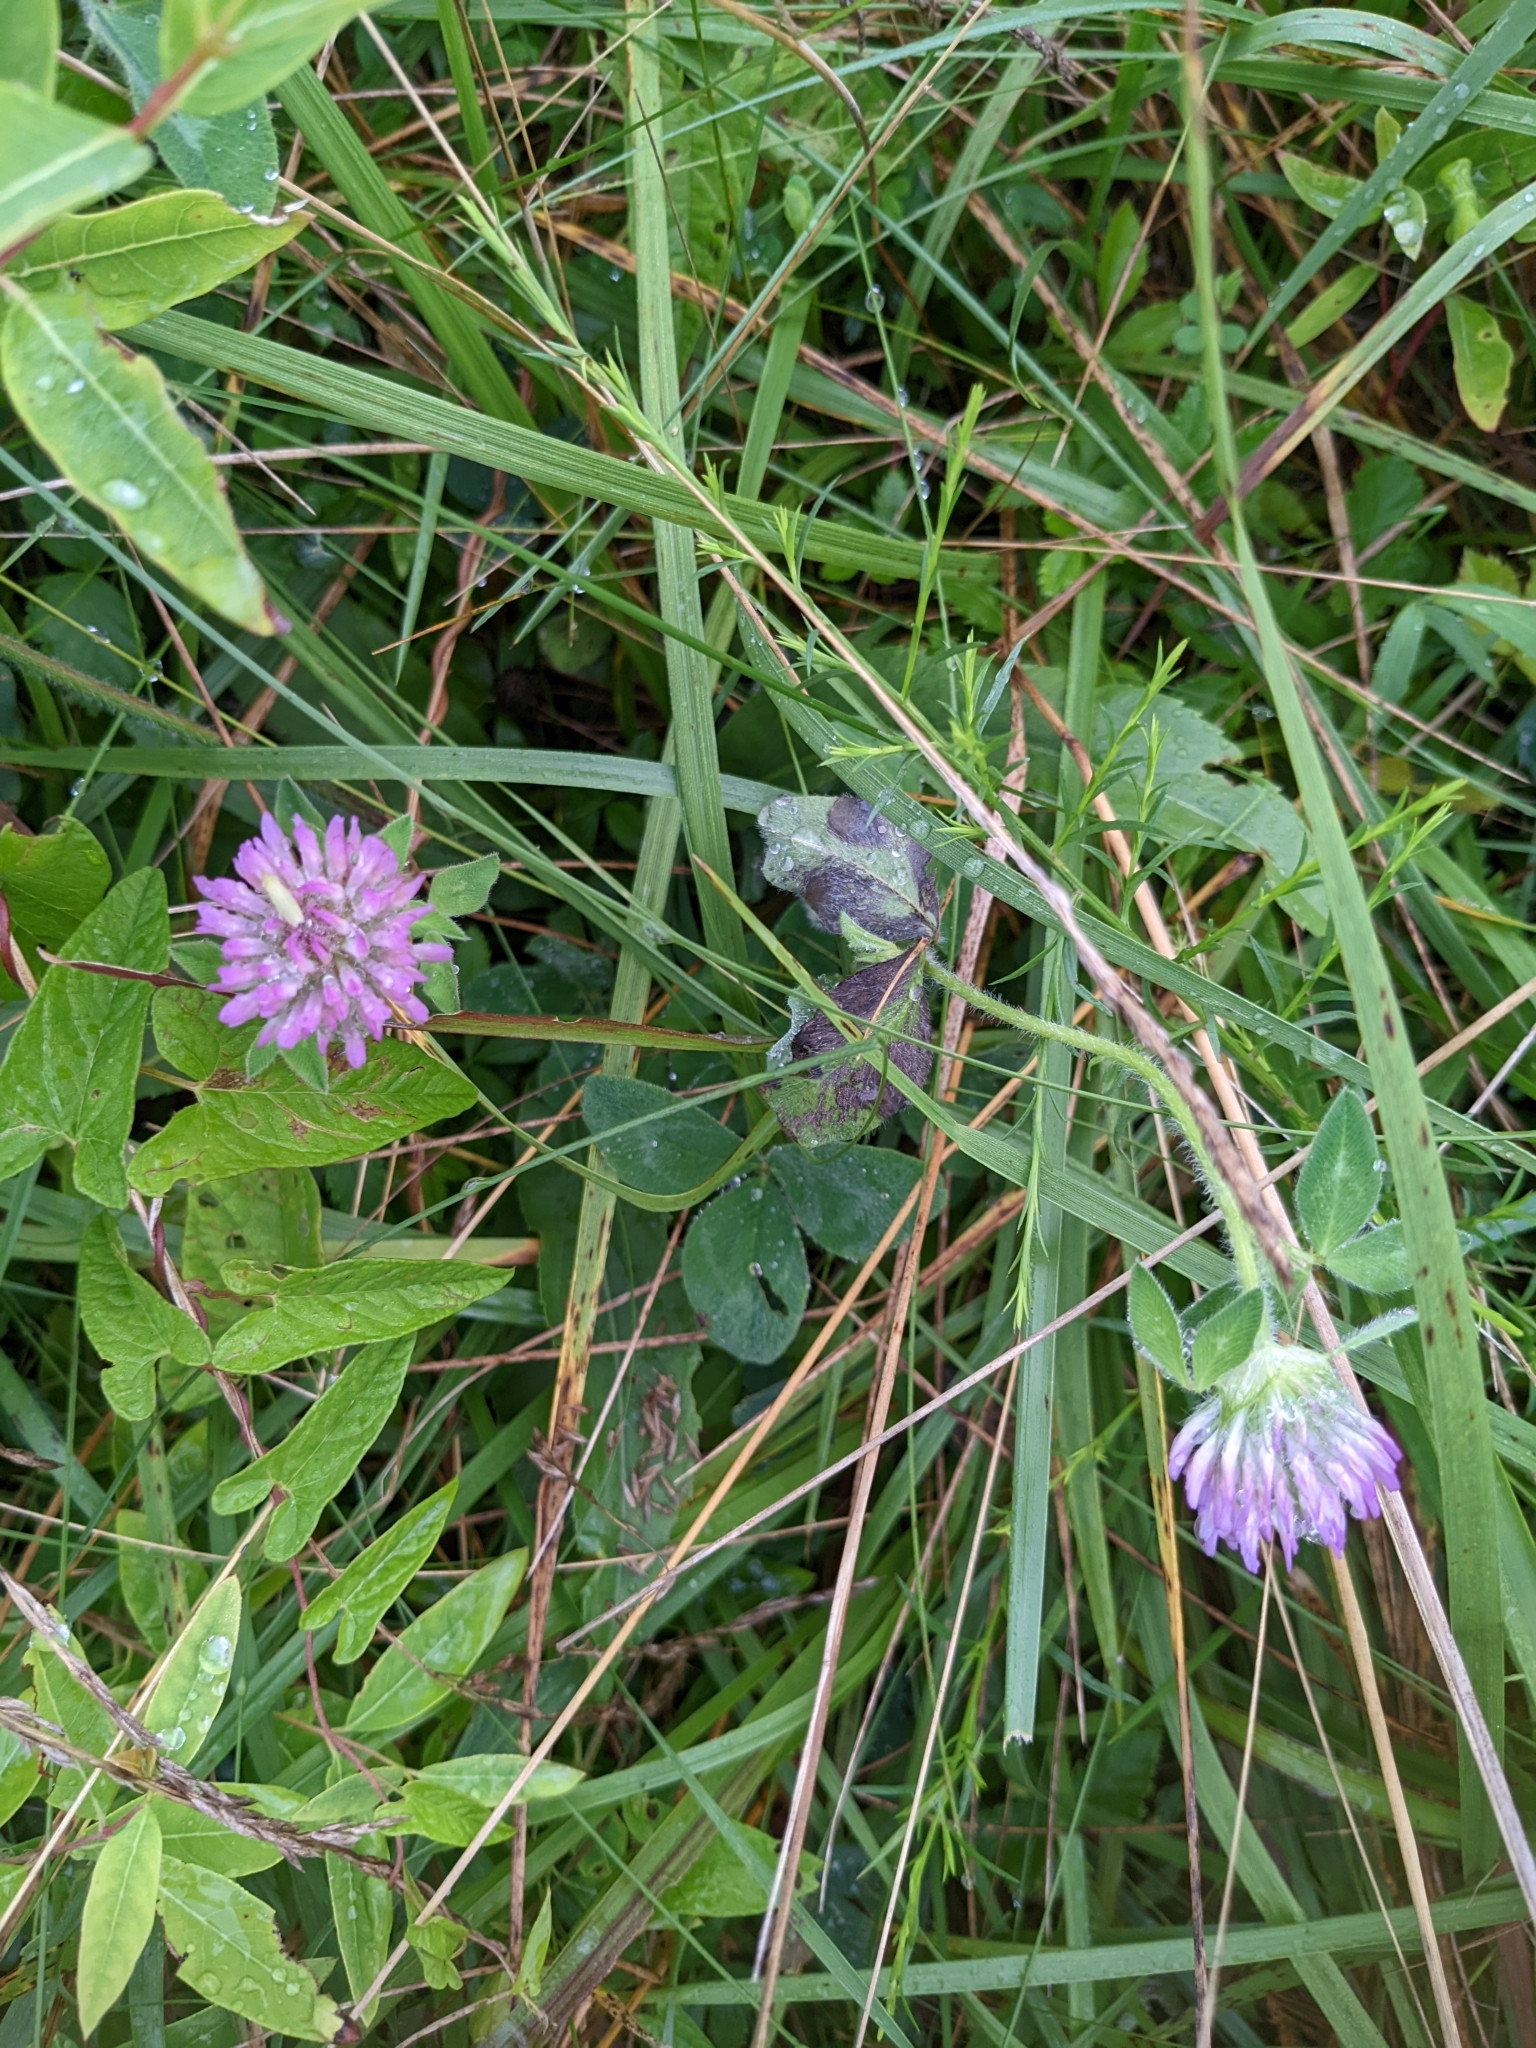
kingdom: Plantae
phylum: Tracheophyta
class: Magnoliopsida
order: Fabales
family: Fabaceae
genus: Trifolium
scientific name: Trifolium pratense
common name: Red clover
